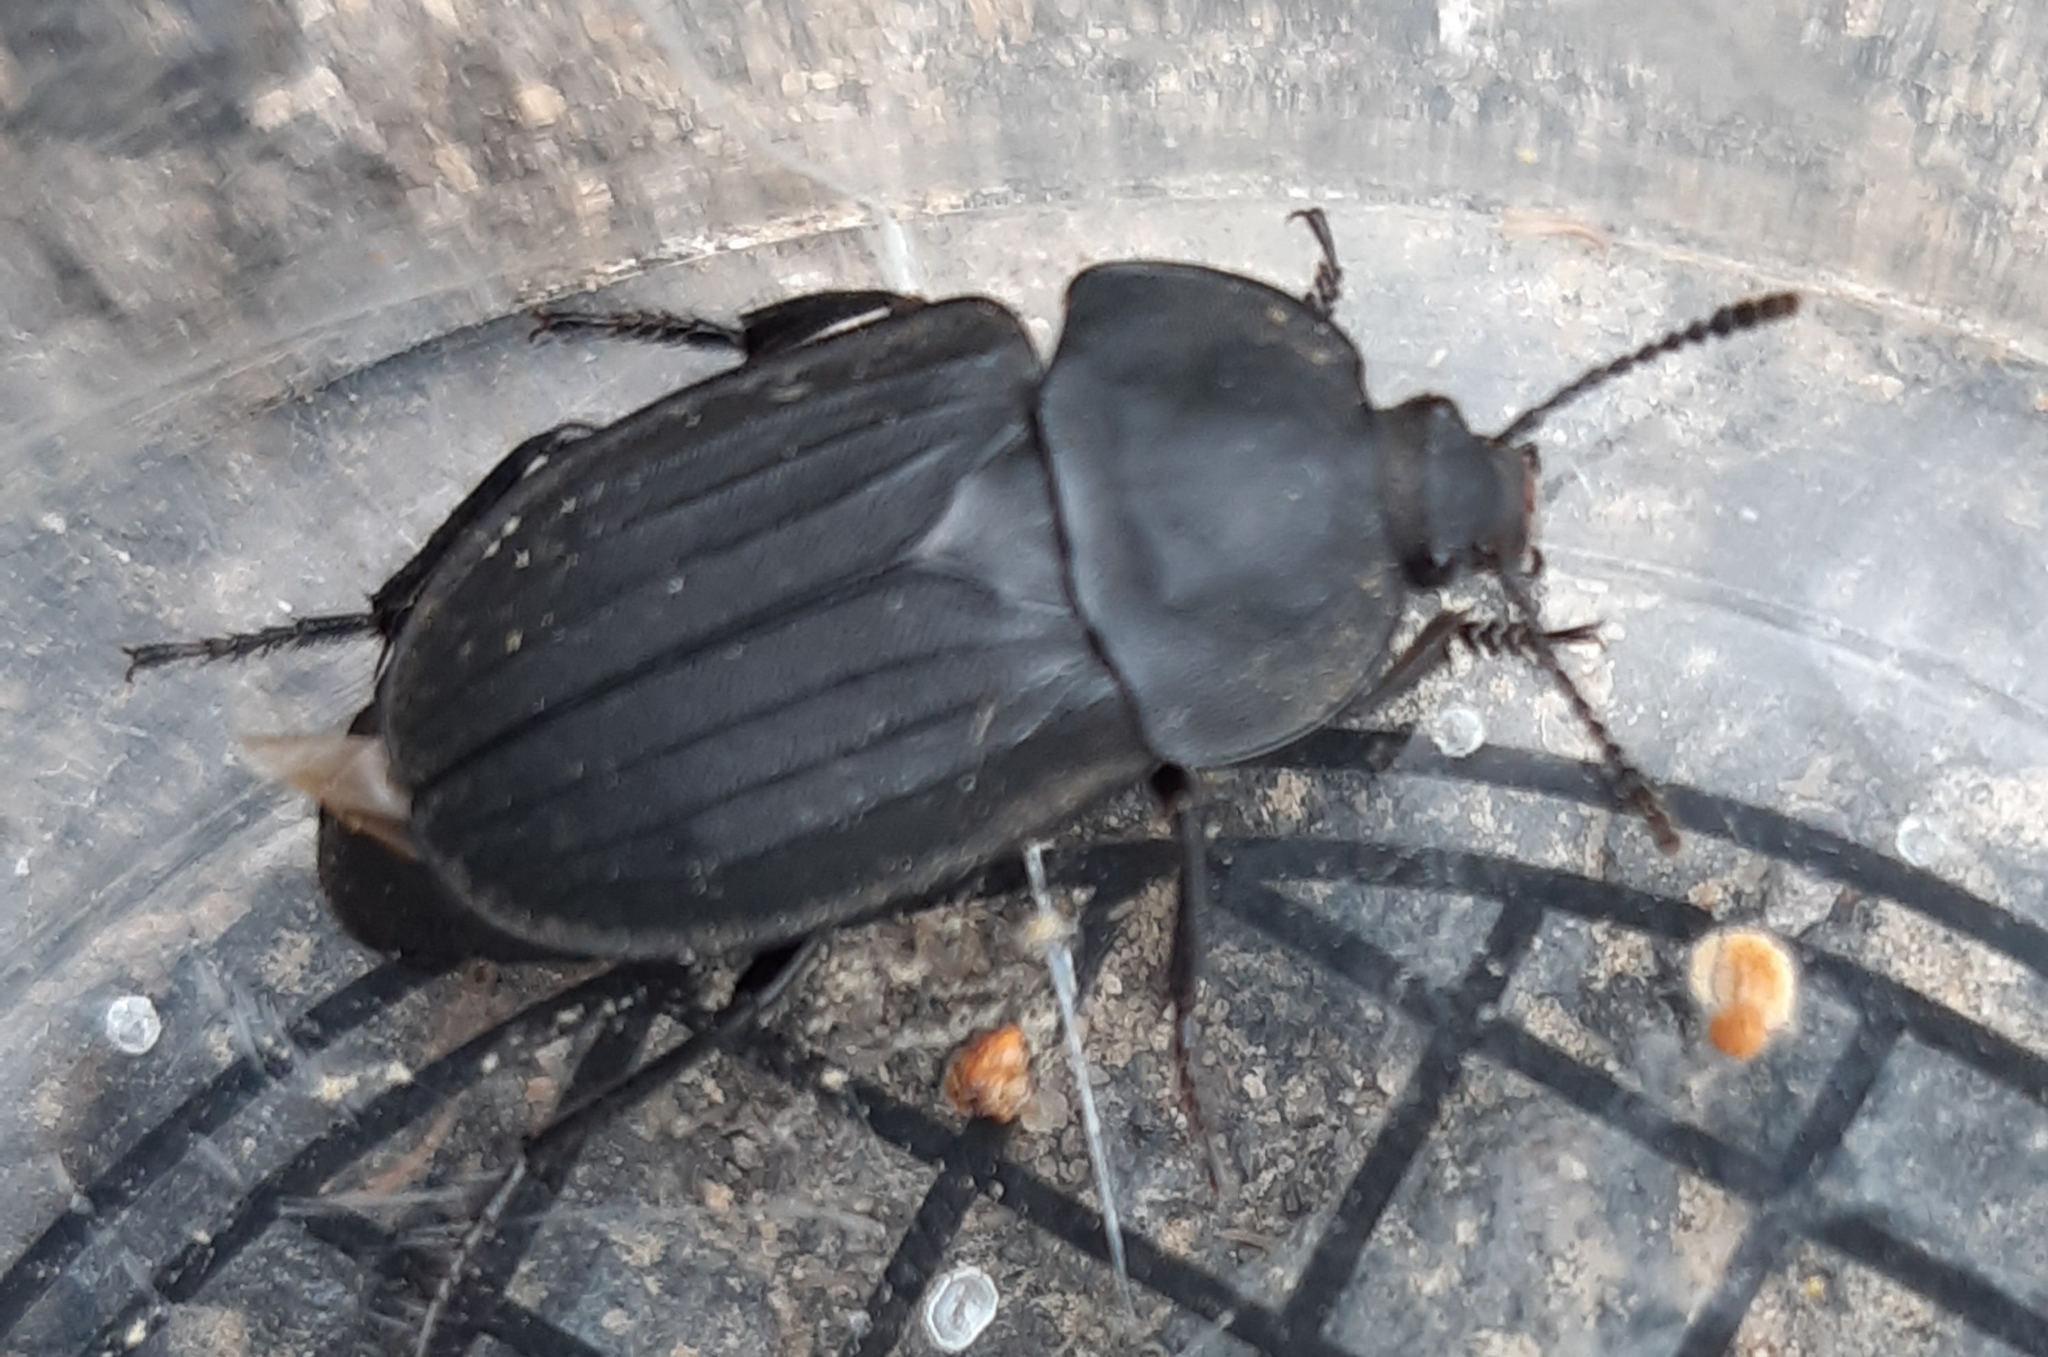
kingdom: Animalia
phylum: Arthropoda
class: Insecta
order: Coleoptera
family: Staphylinidae
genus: Silpha
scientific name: Silpha tristis
